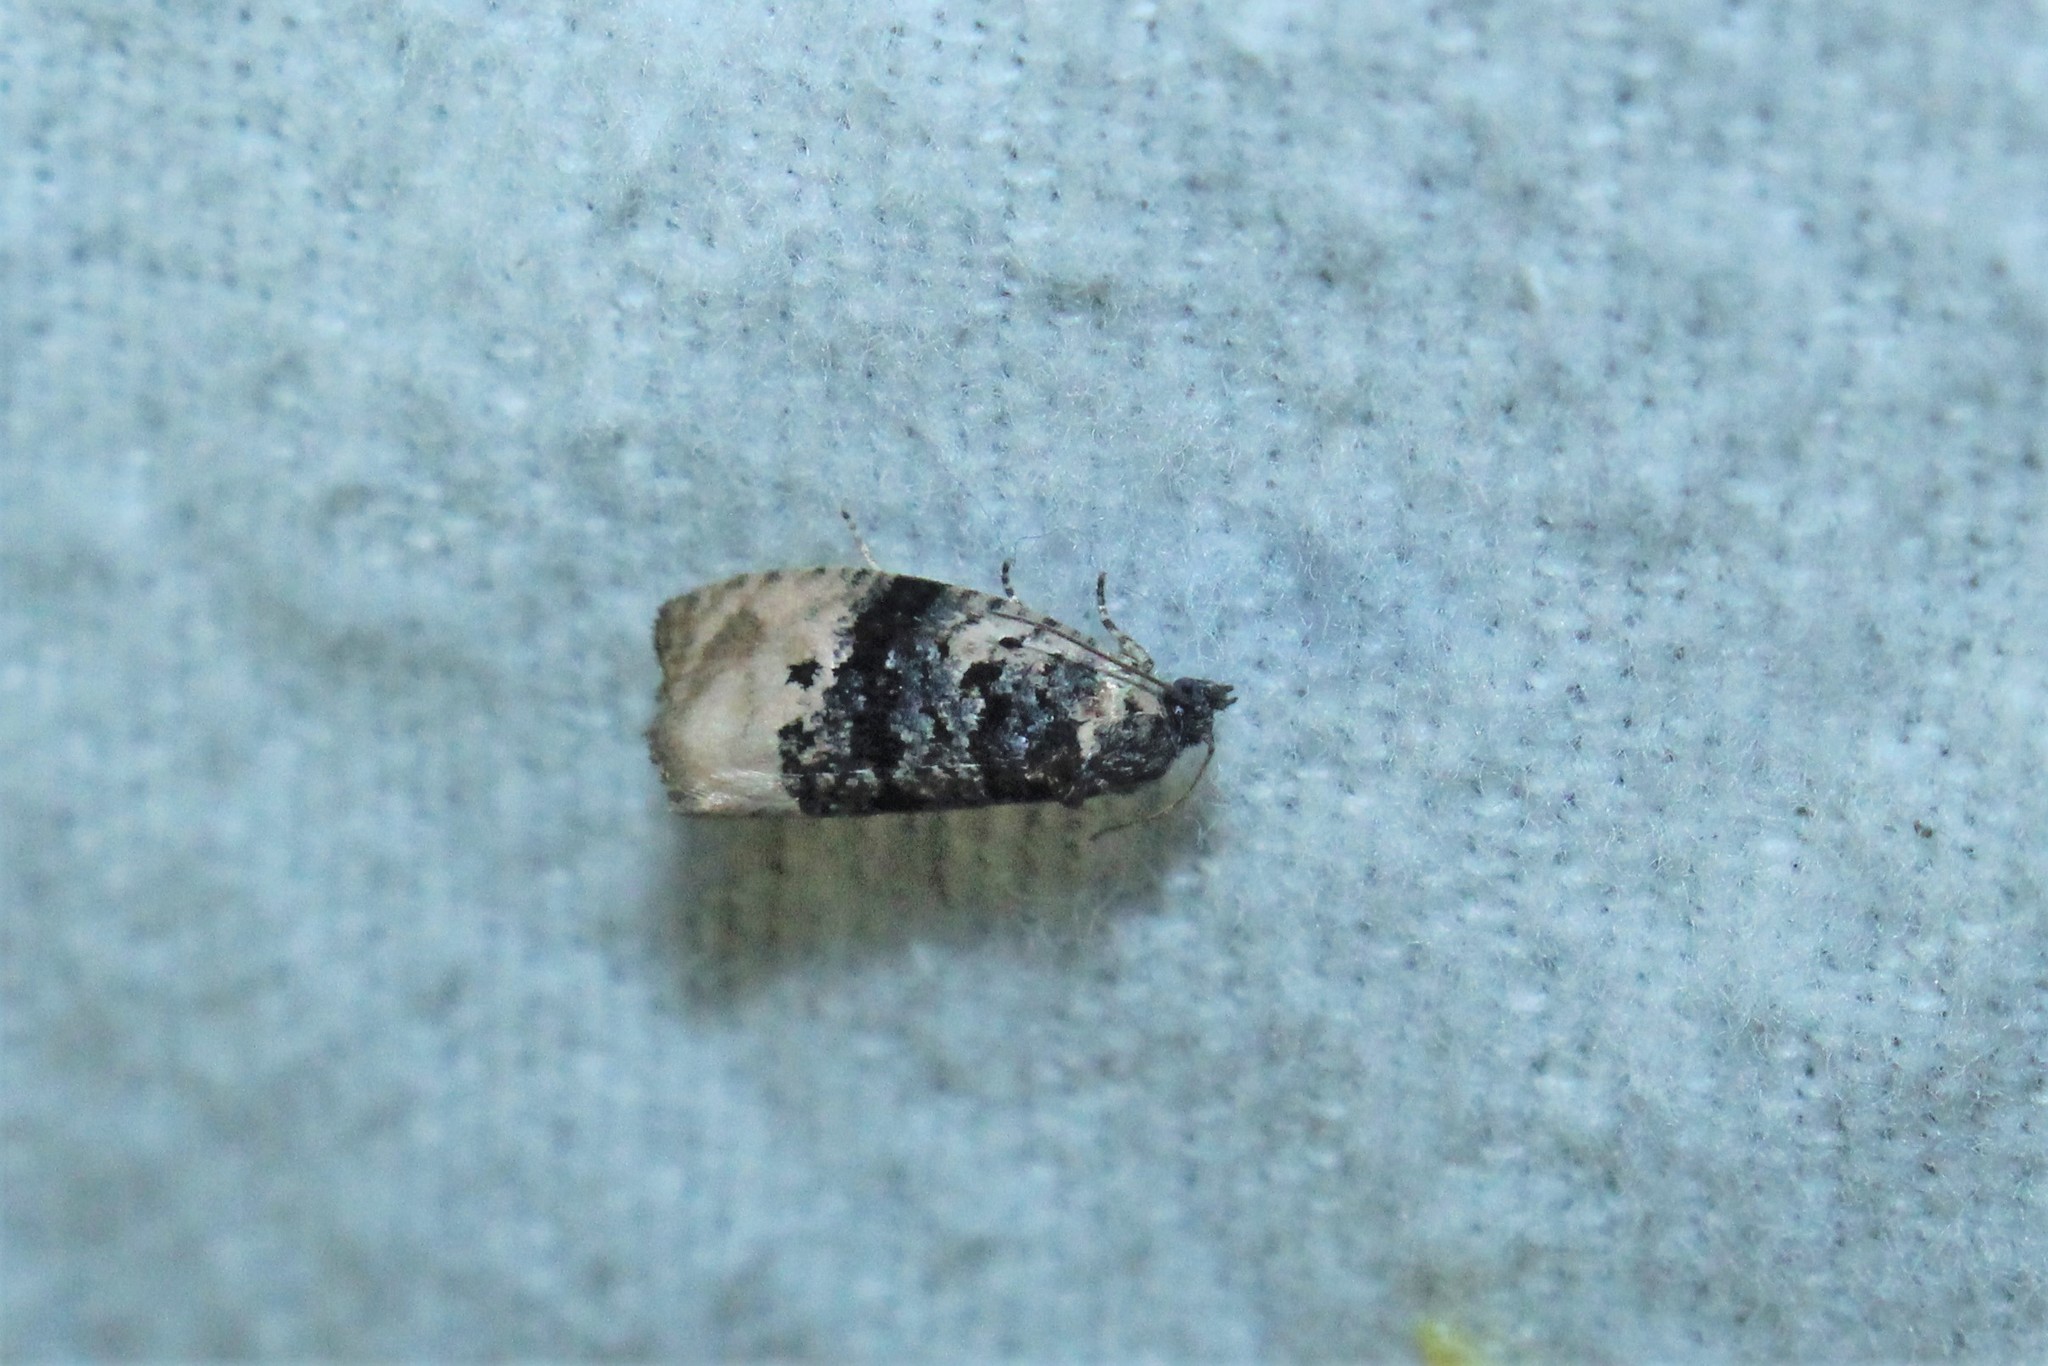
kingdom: Animalia
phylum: Arthropoda
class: Insecta
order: Lepidoptera
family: Tortricidae
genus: Hedya
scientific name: Hedya separatana
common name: Pink-washed leafroller moth
